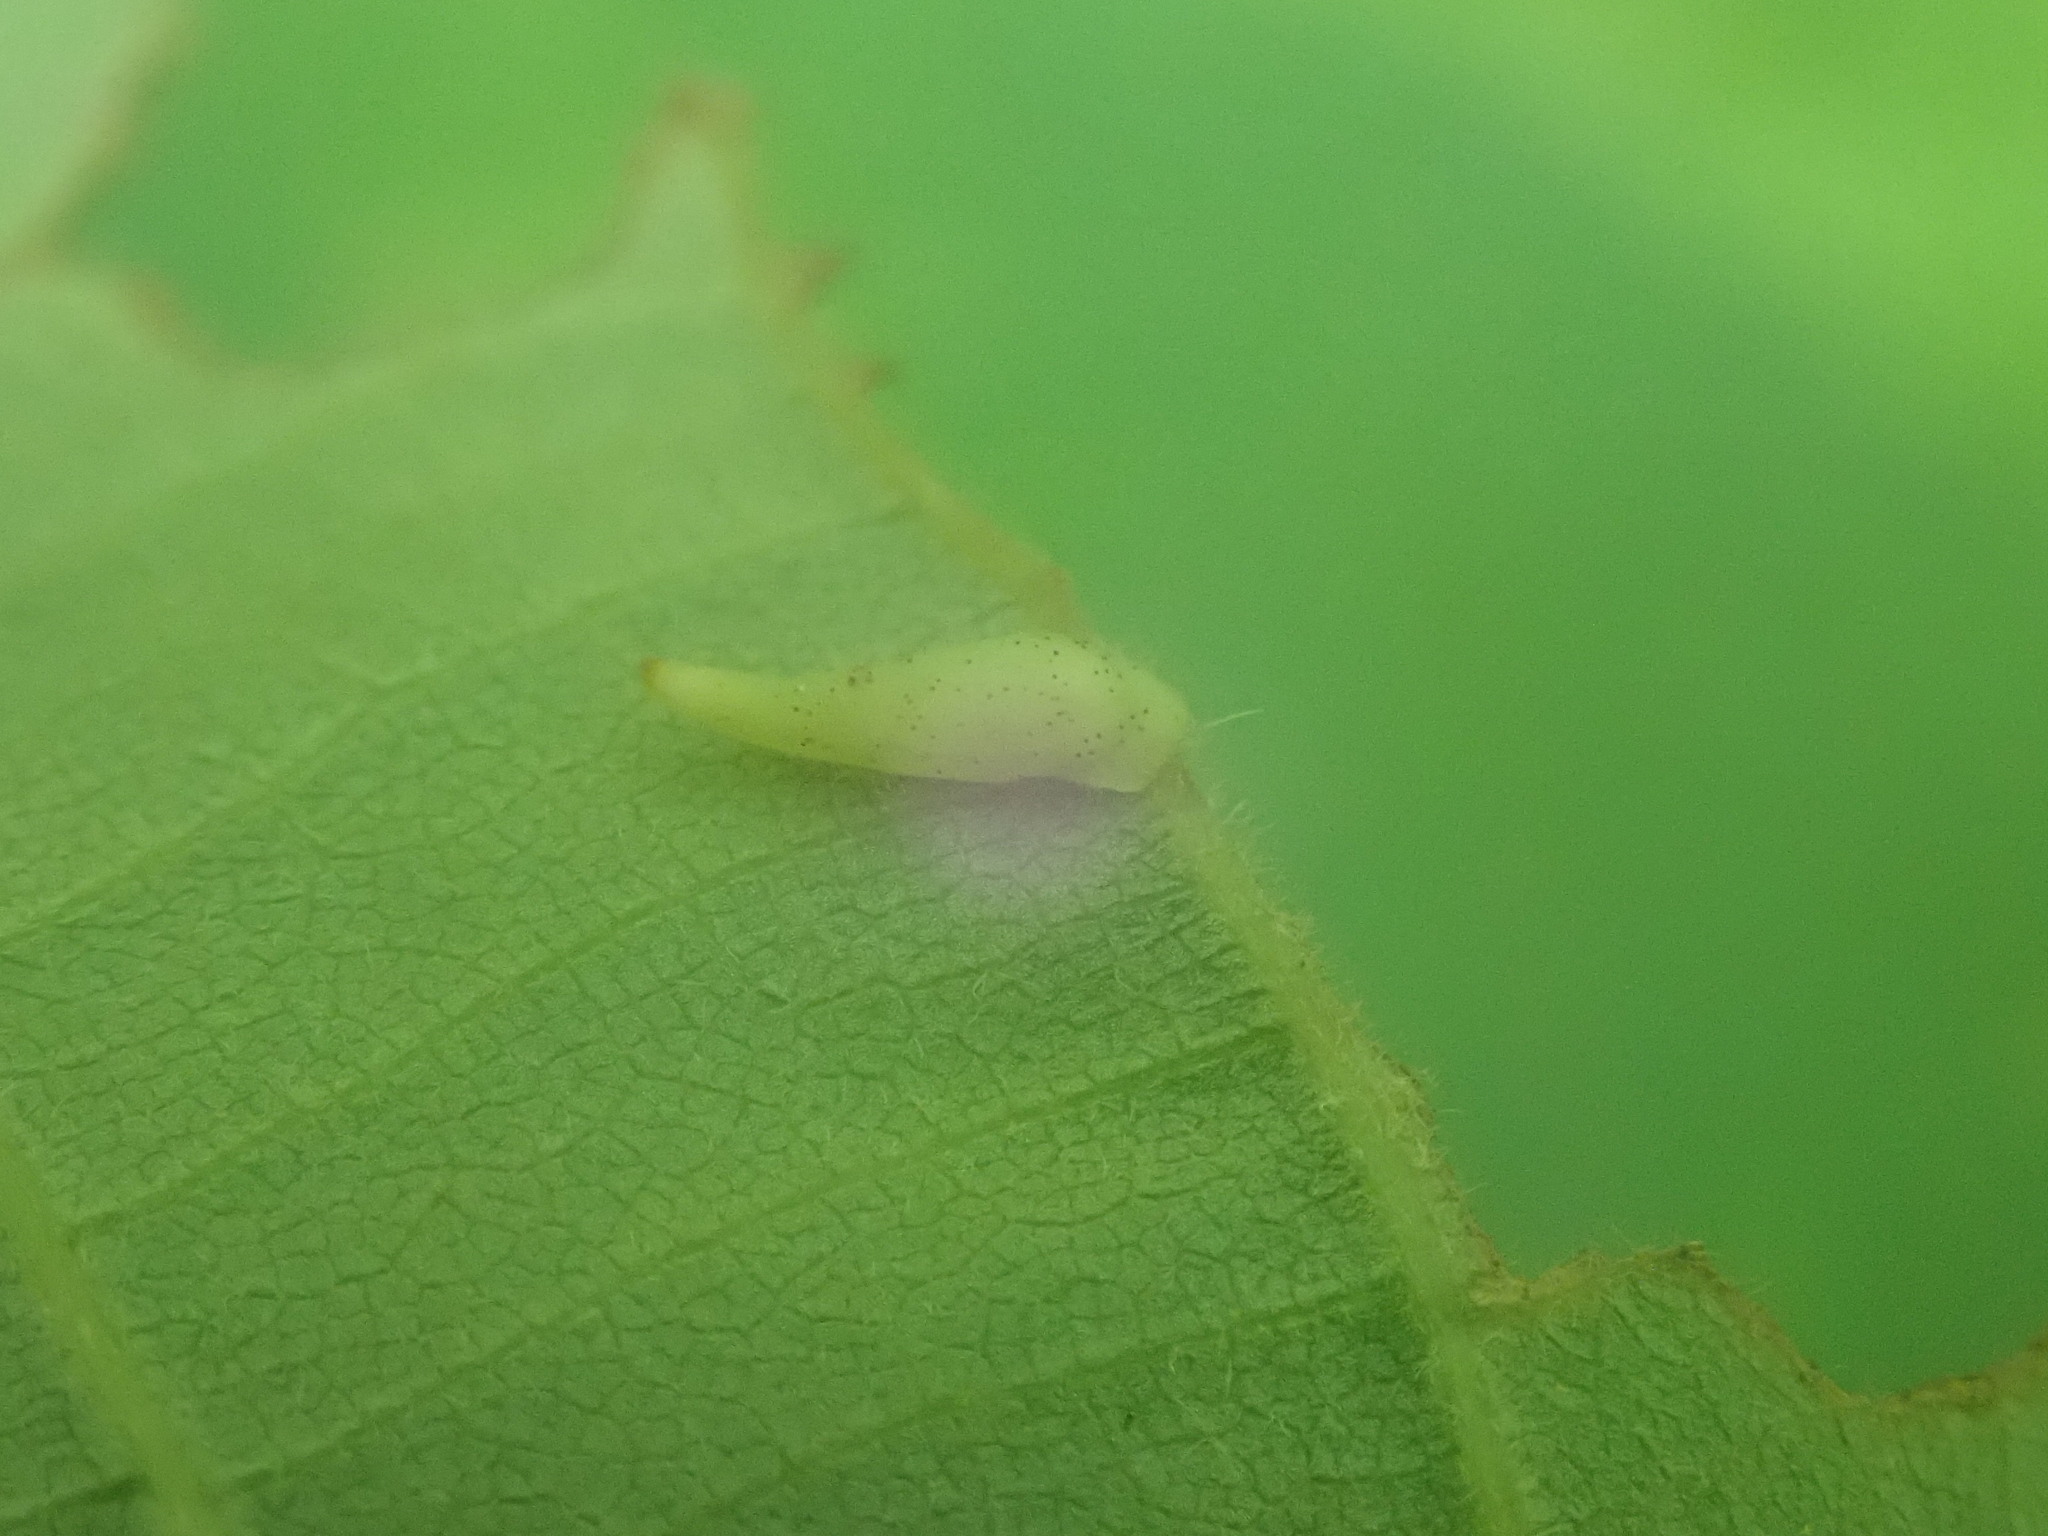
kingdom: Animalia
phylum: Arthropoda
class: Insecta
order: Diptera
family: Cecidomyiidae
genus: Caryomyia
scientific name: Caryomyia
